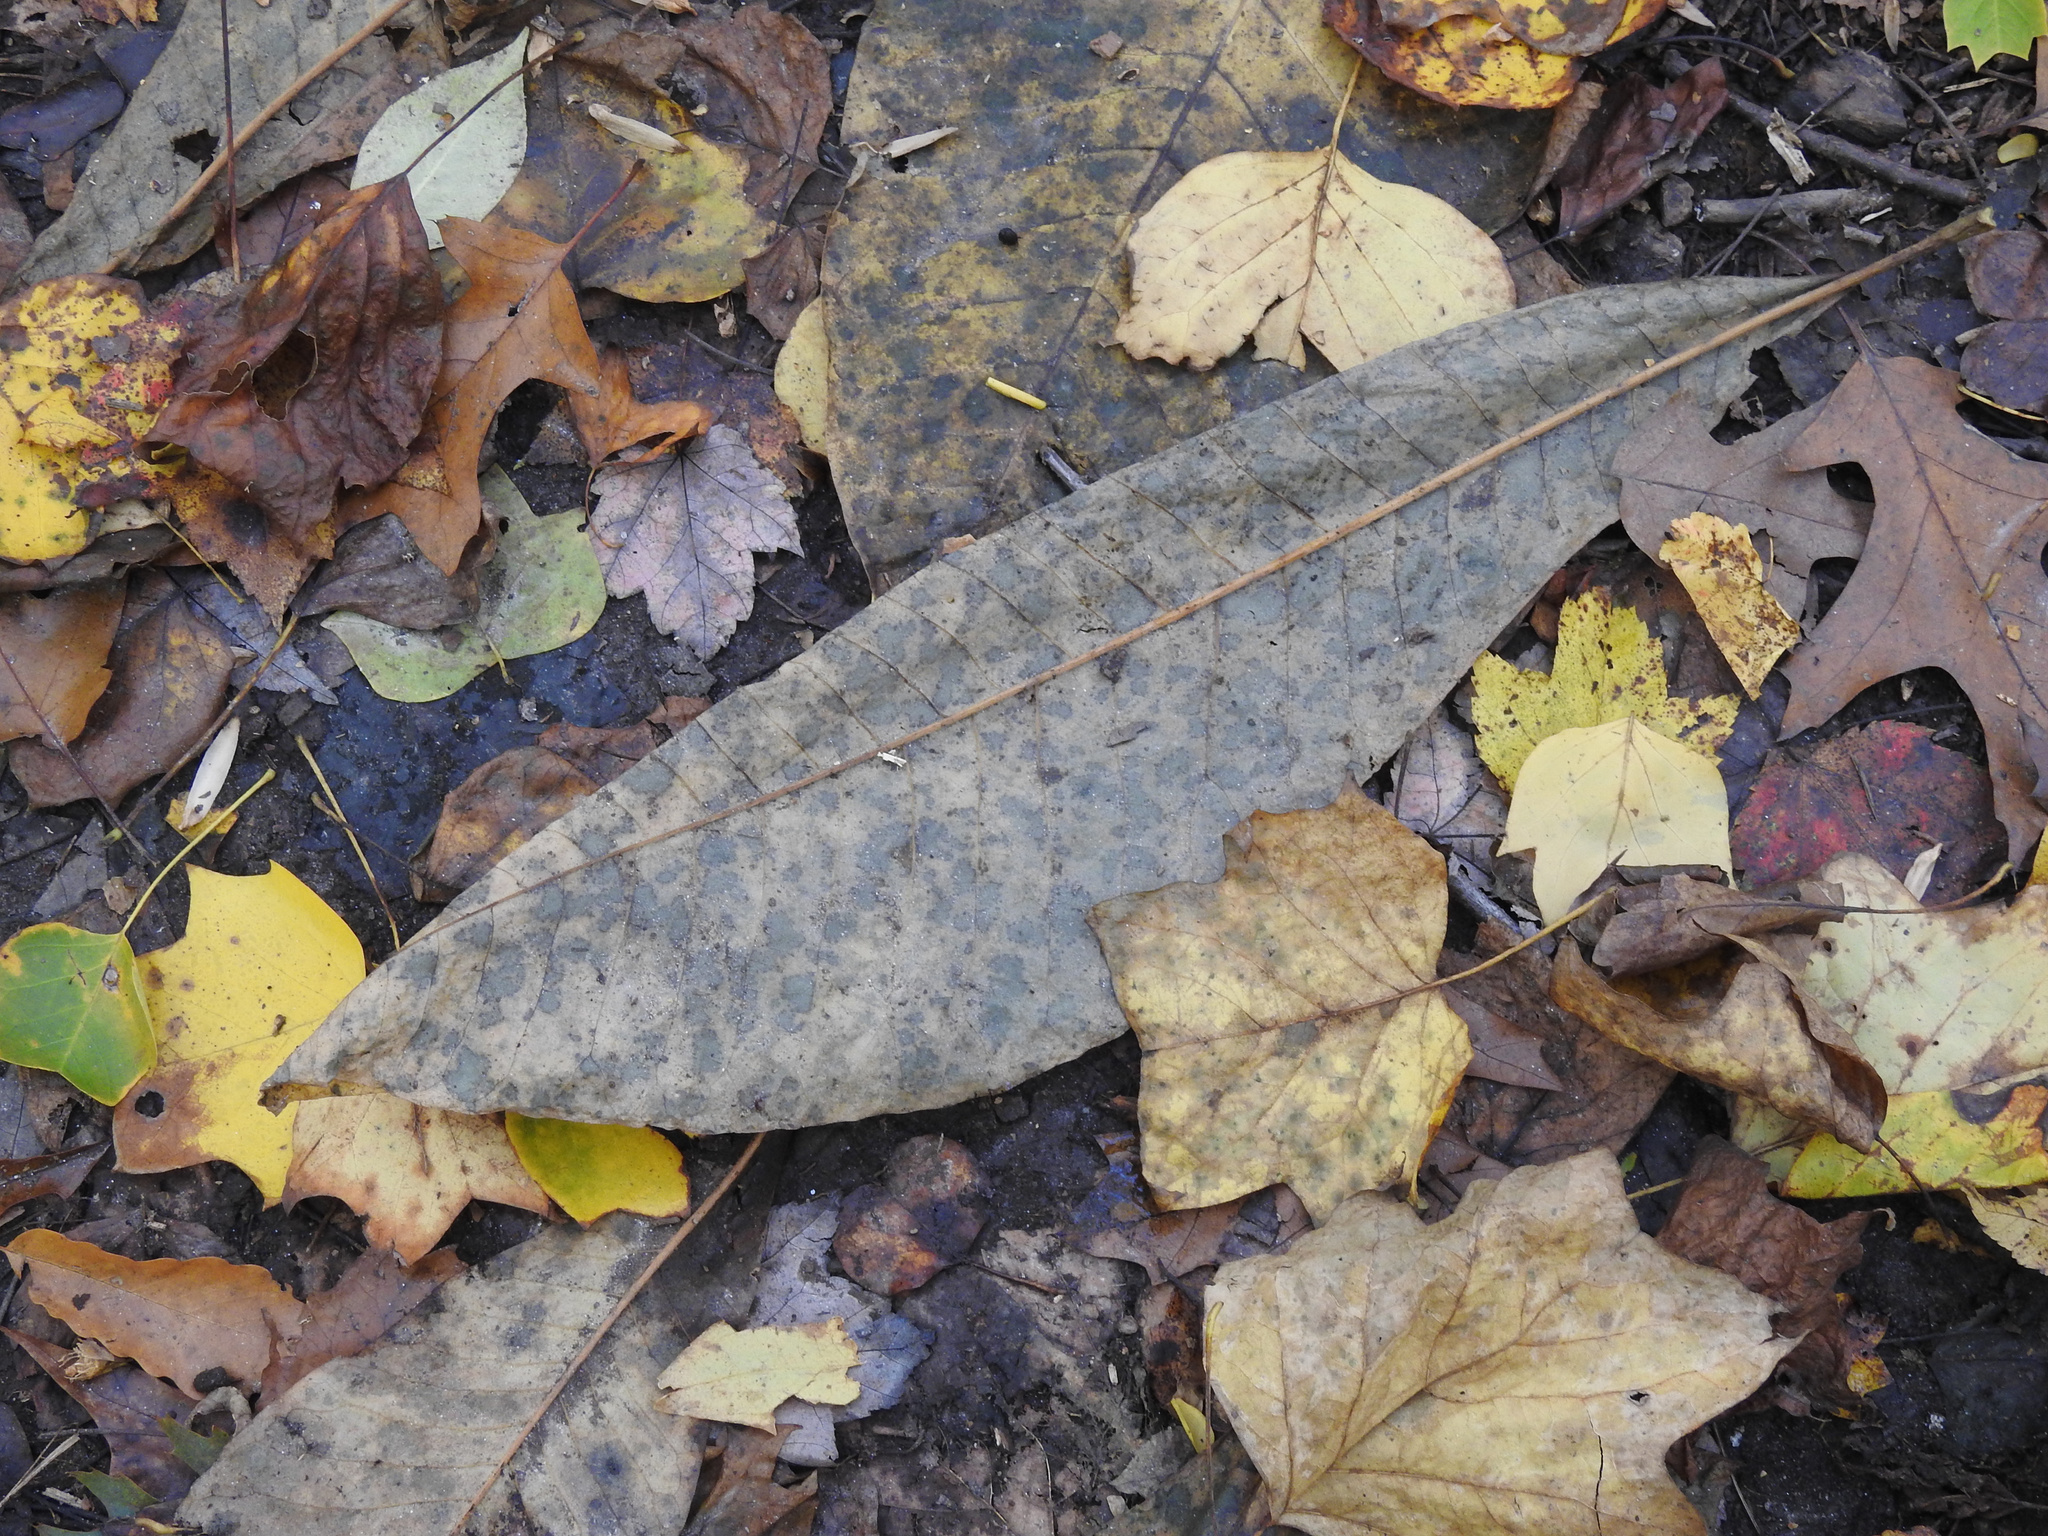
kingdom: Plantae
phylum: Tracheophyta
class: Magnoliopsida
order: Magnoliales
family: Magnoliaceae
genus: Magnolia
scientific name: Magnolia tripetala
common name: Umbrella magnolia
